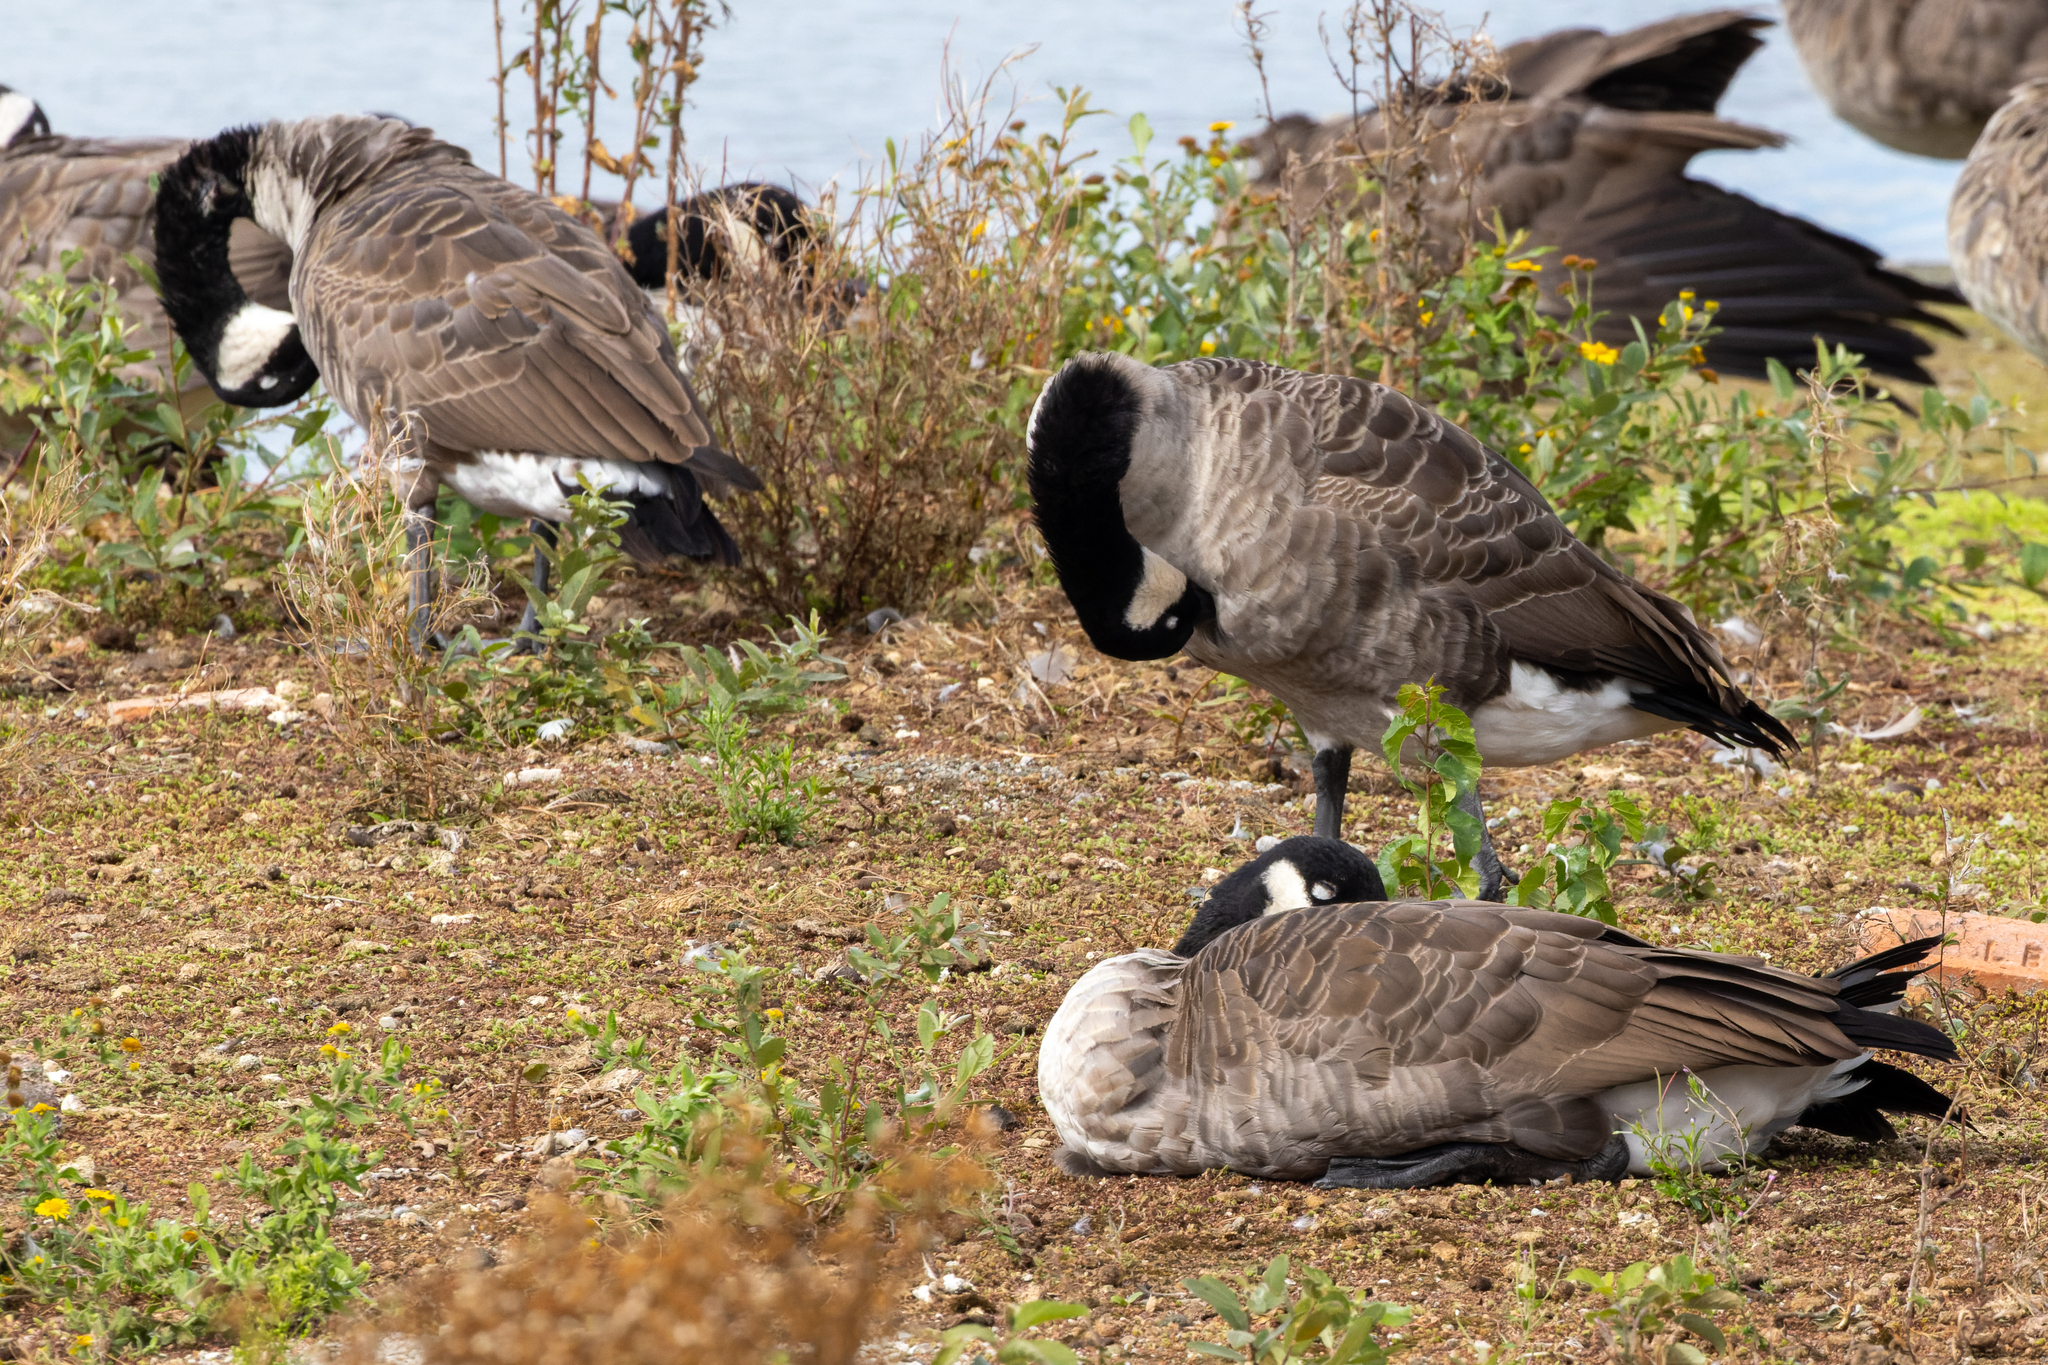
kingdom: Animalia
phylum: Chordata
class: Aves
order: Anseriformes
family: Anatidae
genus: Branta
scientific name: Branta canadensis
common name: Canada goose
